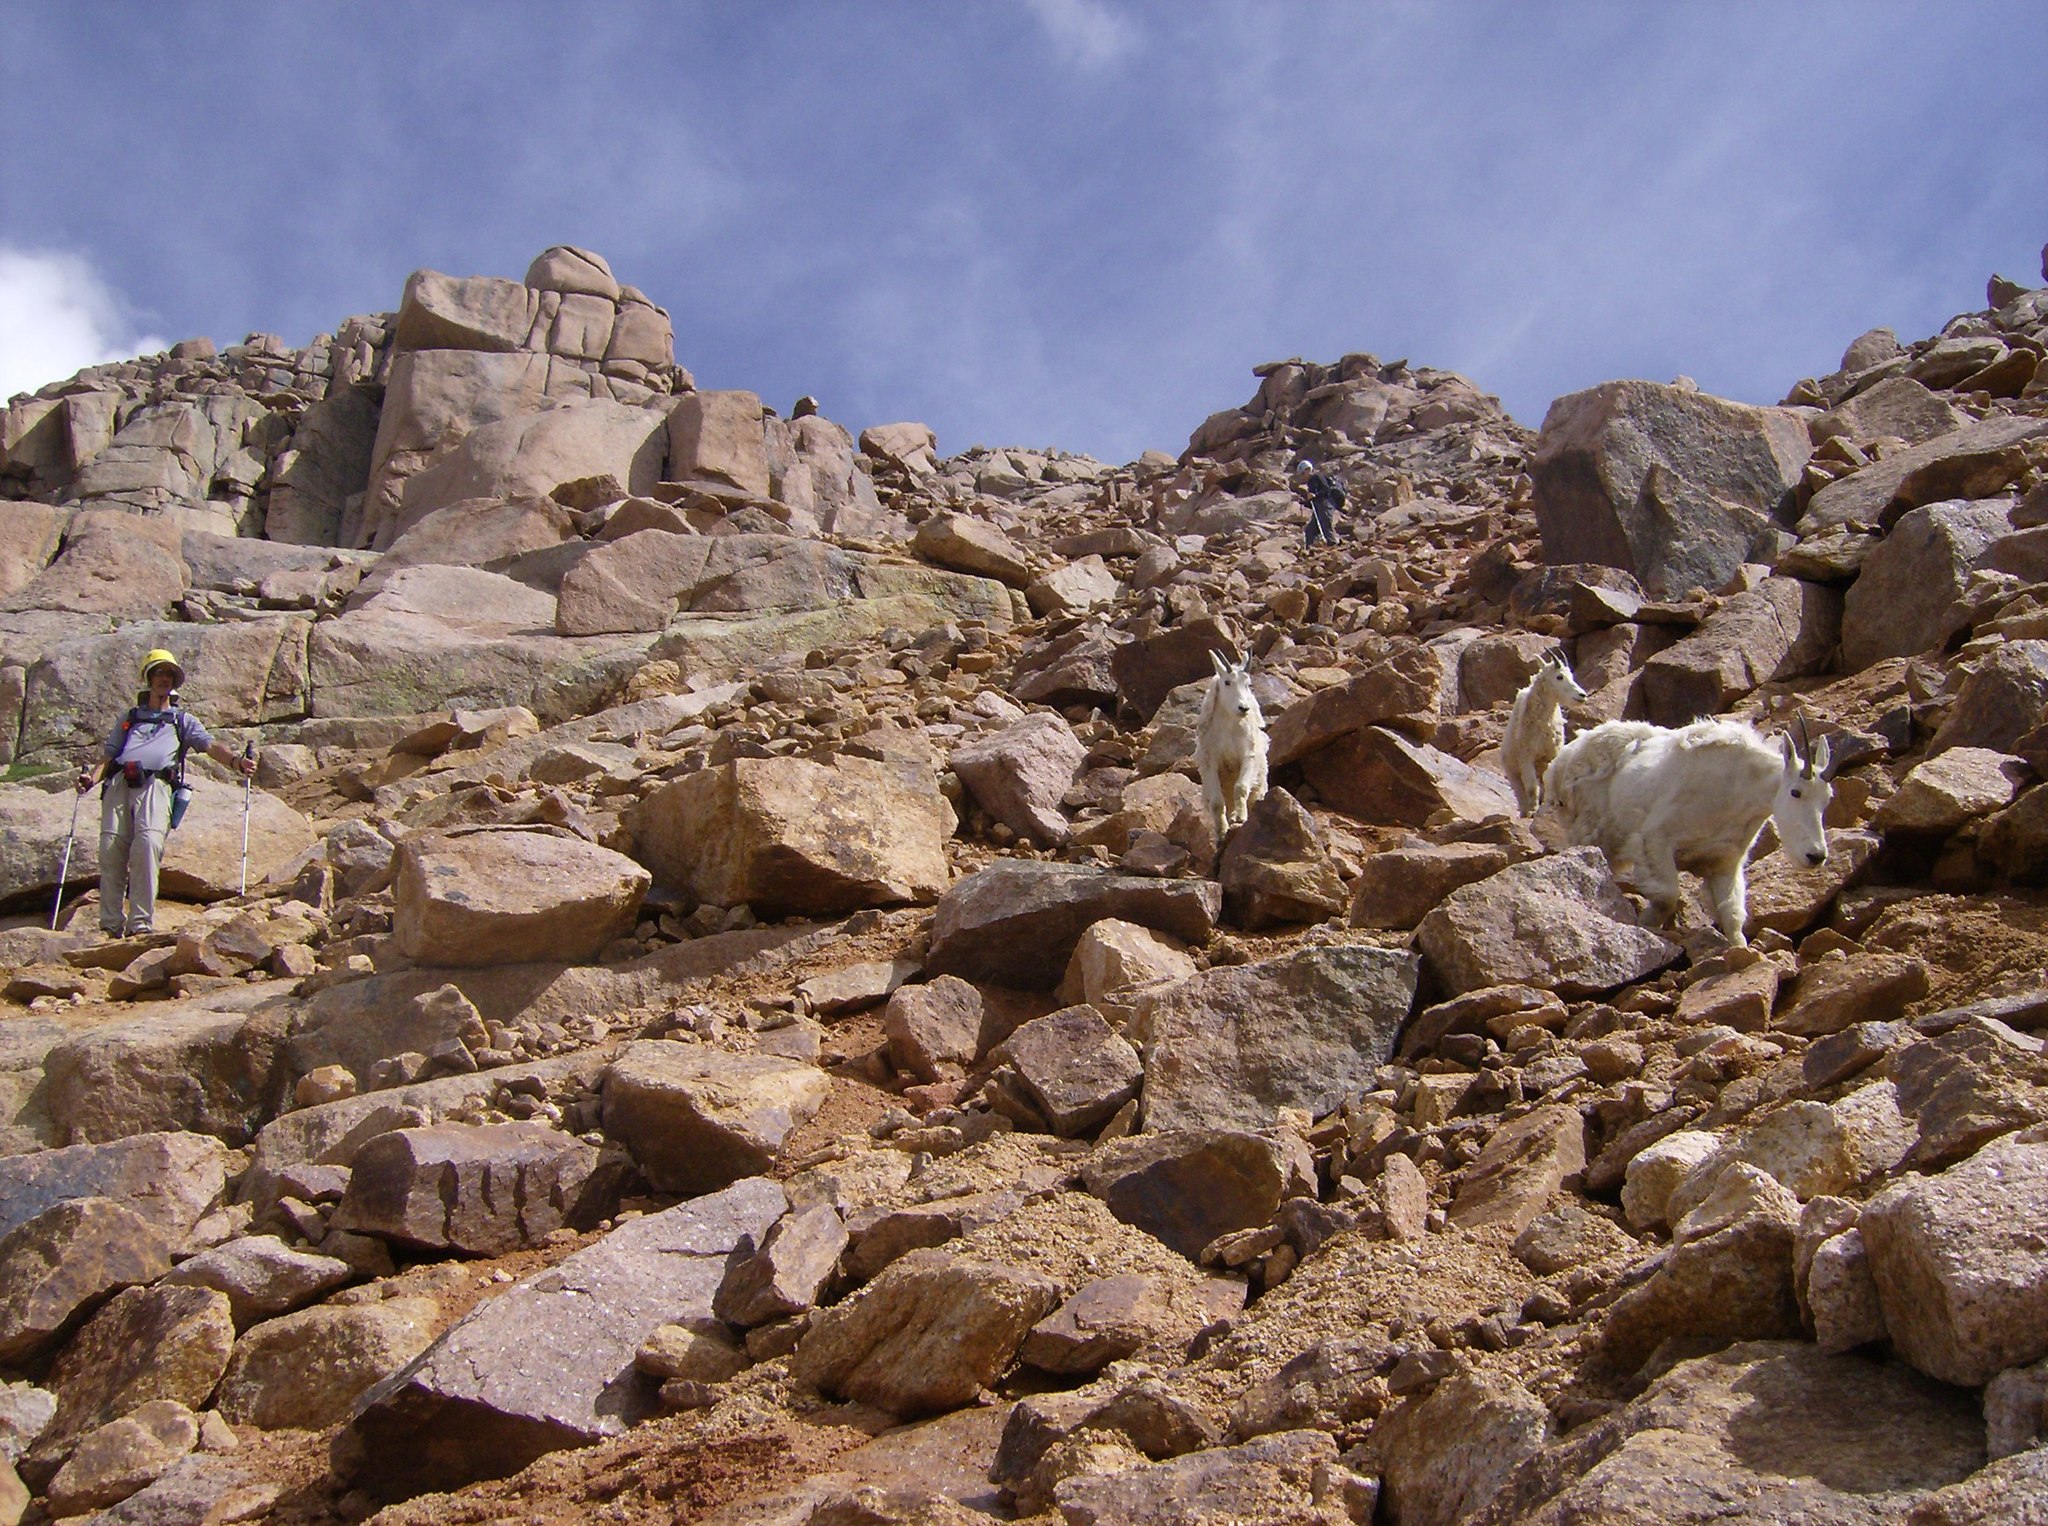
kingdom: Animalia
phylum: Chordata
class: Mammalia
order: Artiodactyla
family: Bovidae
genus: Oreamnos
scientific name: Oreamnos americanus
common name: Mountain goat
